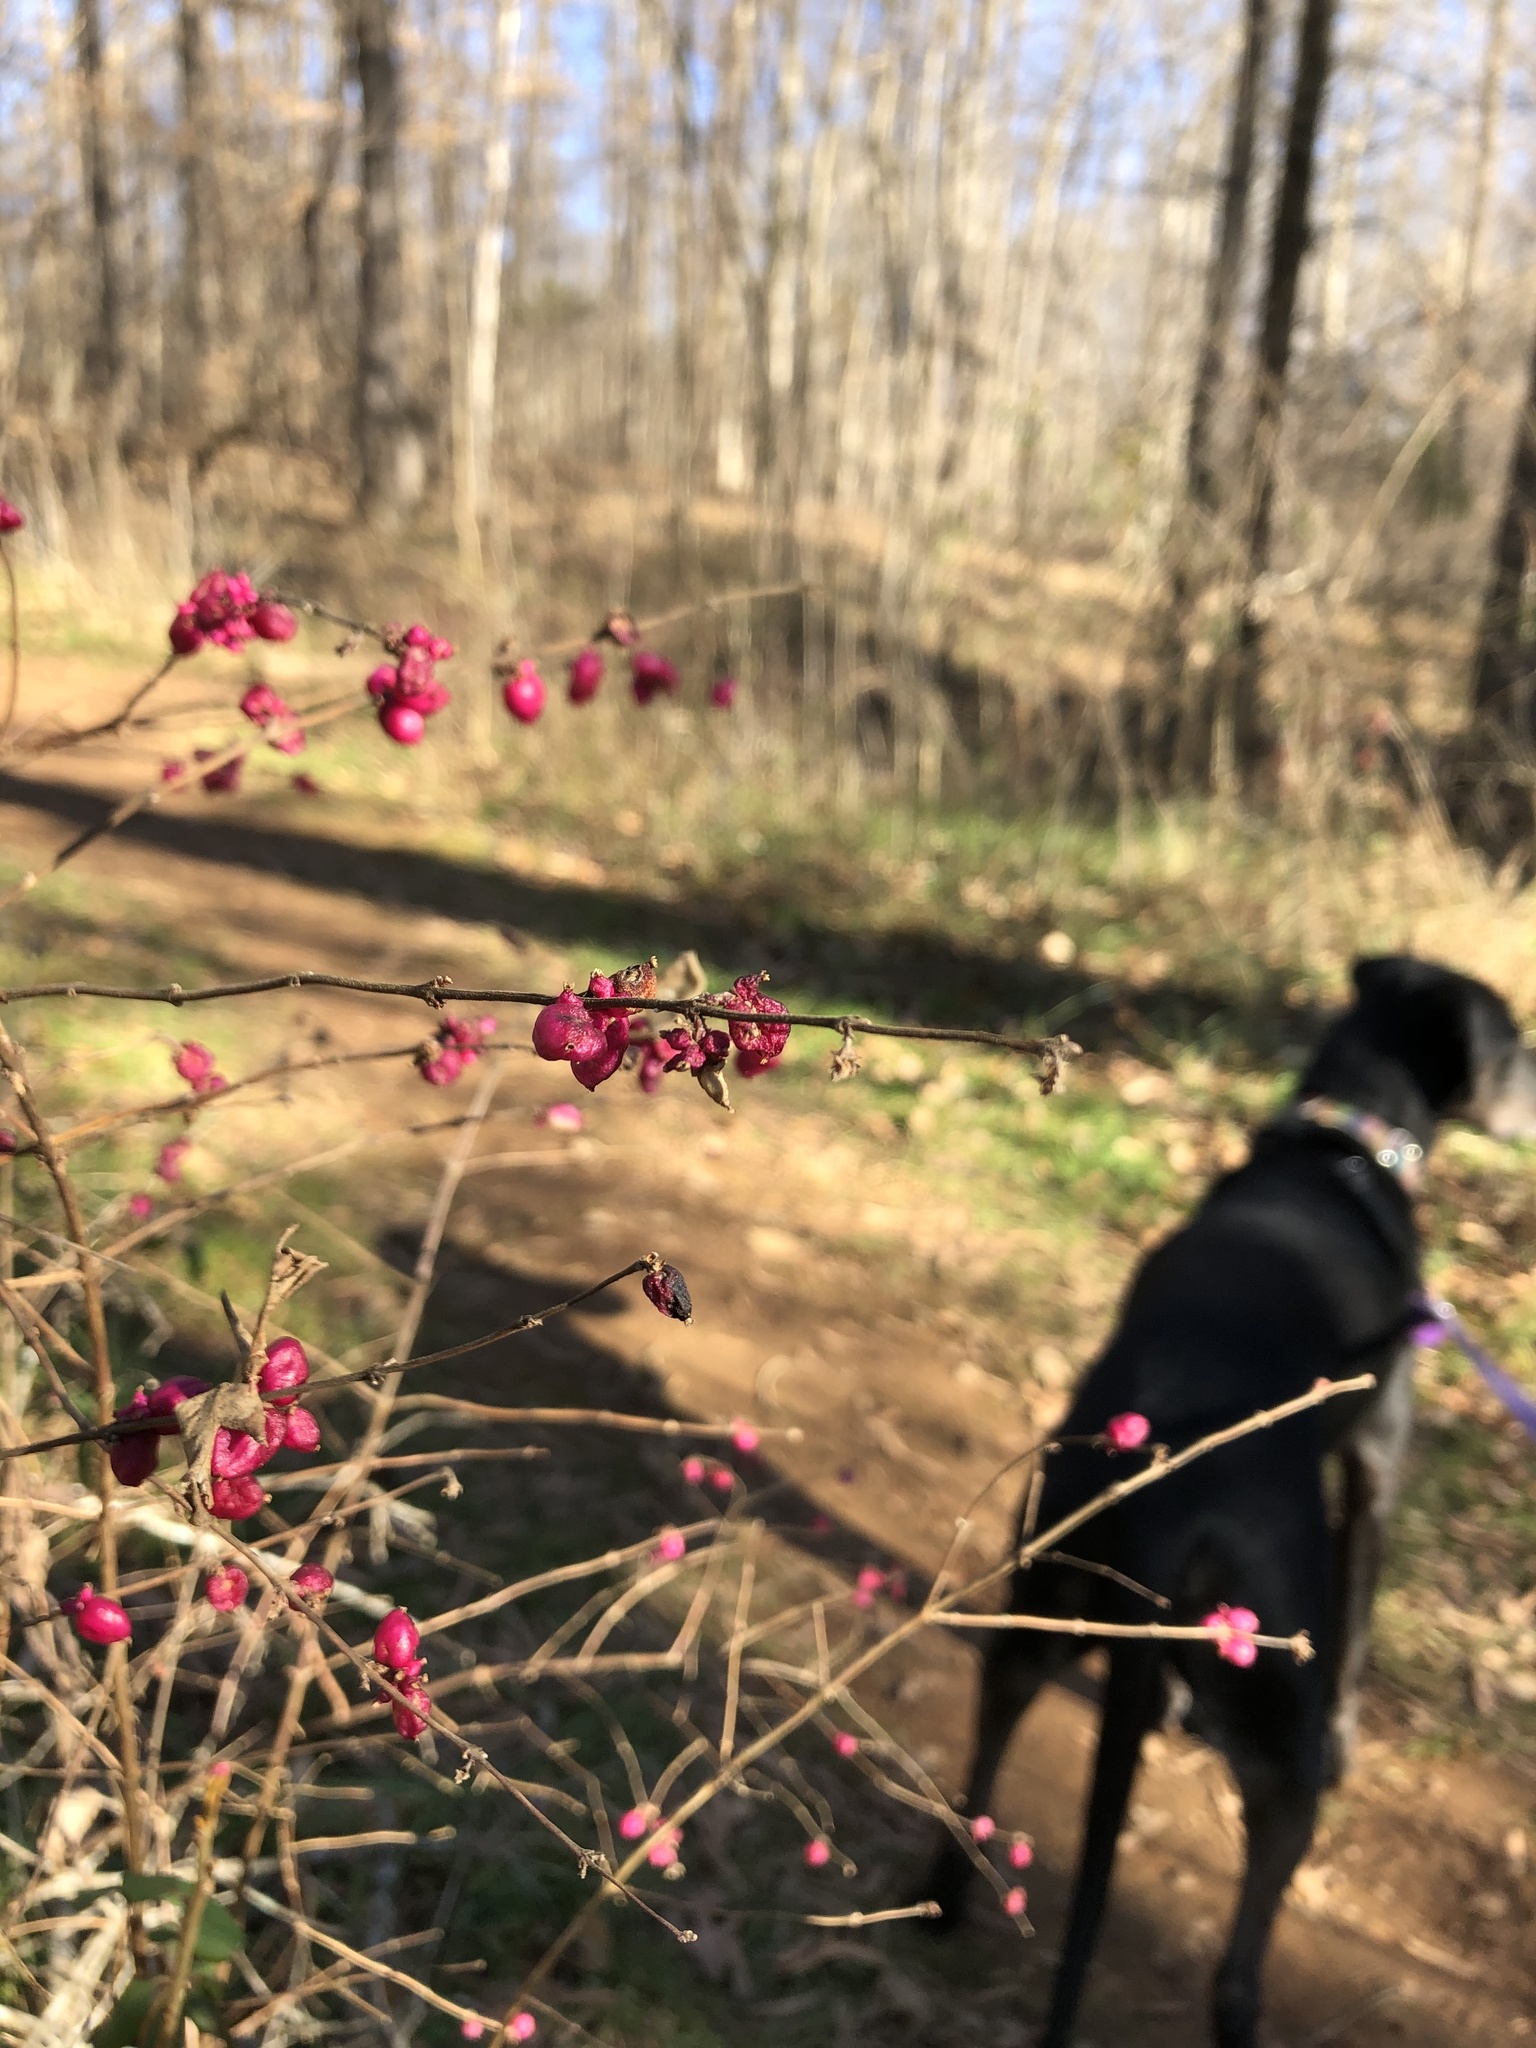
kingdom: Plantae
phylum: Tracheophyta
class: Magnoliopsida
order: Dipsacales
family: Caprifoliaceae
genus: Symphoricarpos
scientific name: Symphoricarpos orbiculatus
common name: Coralberry
